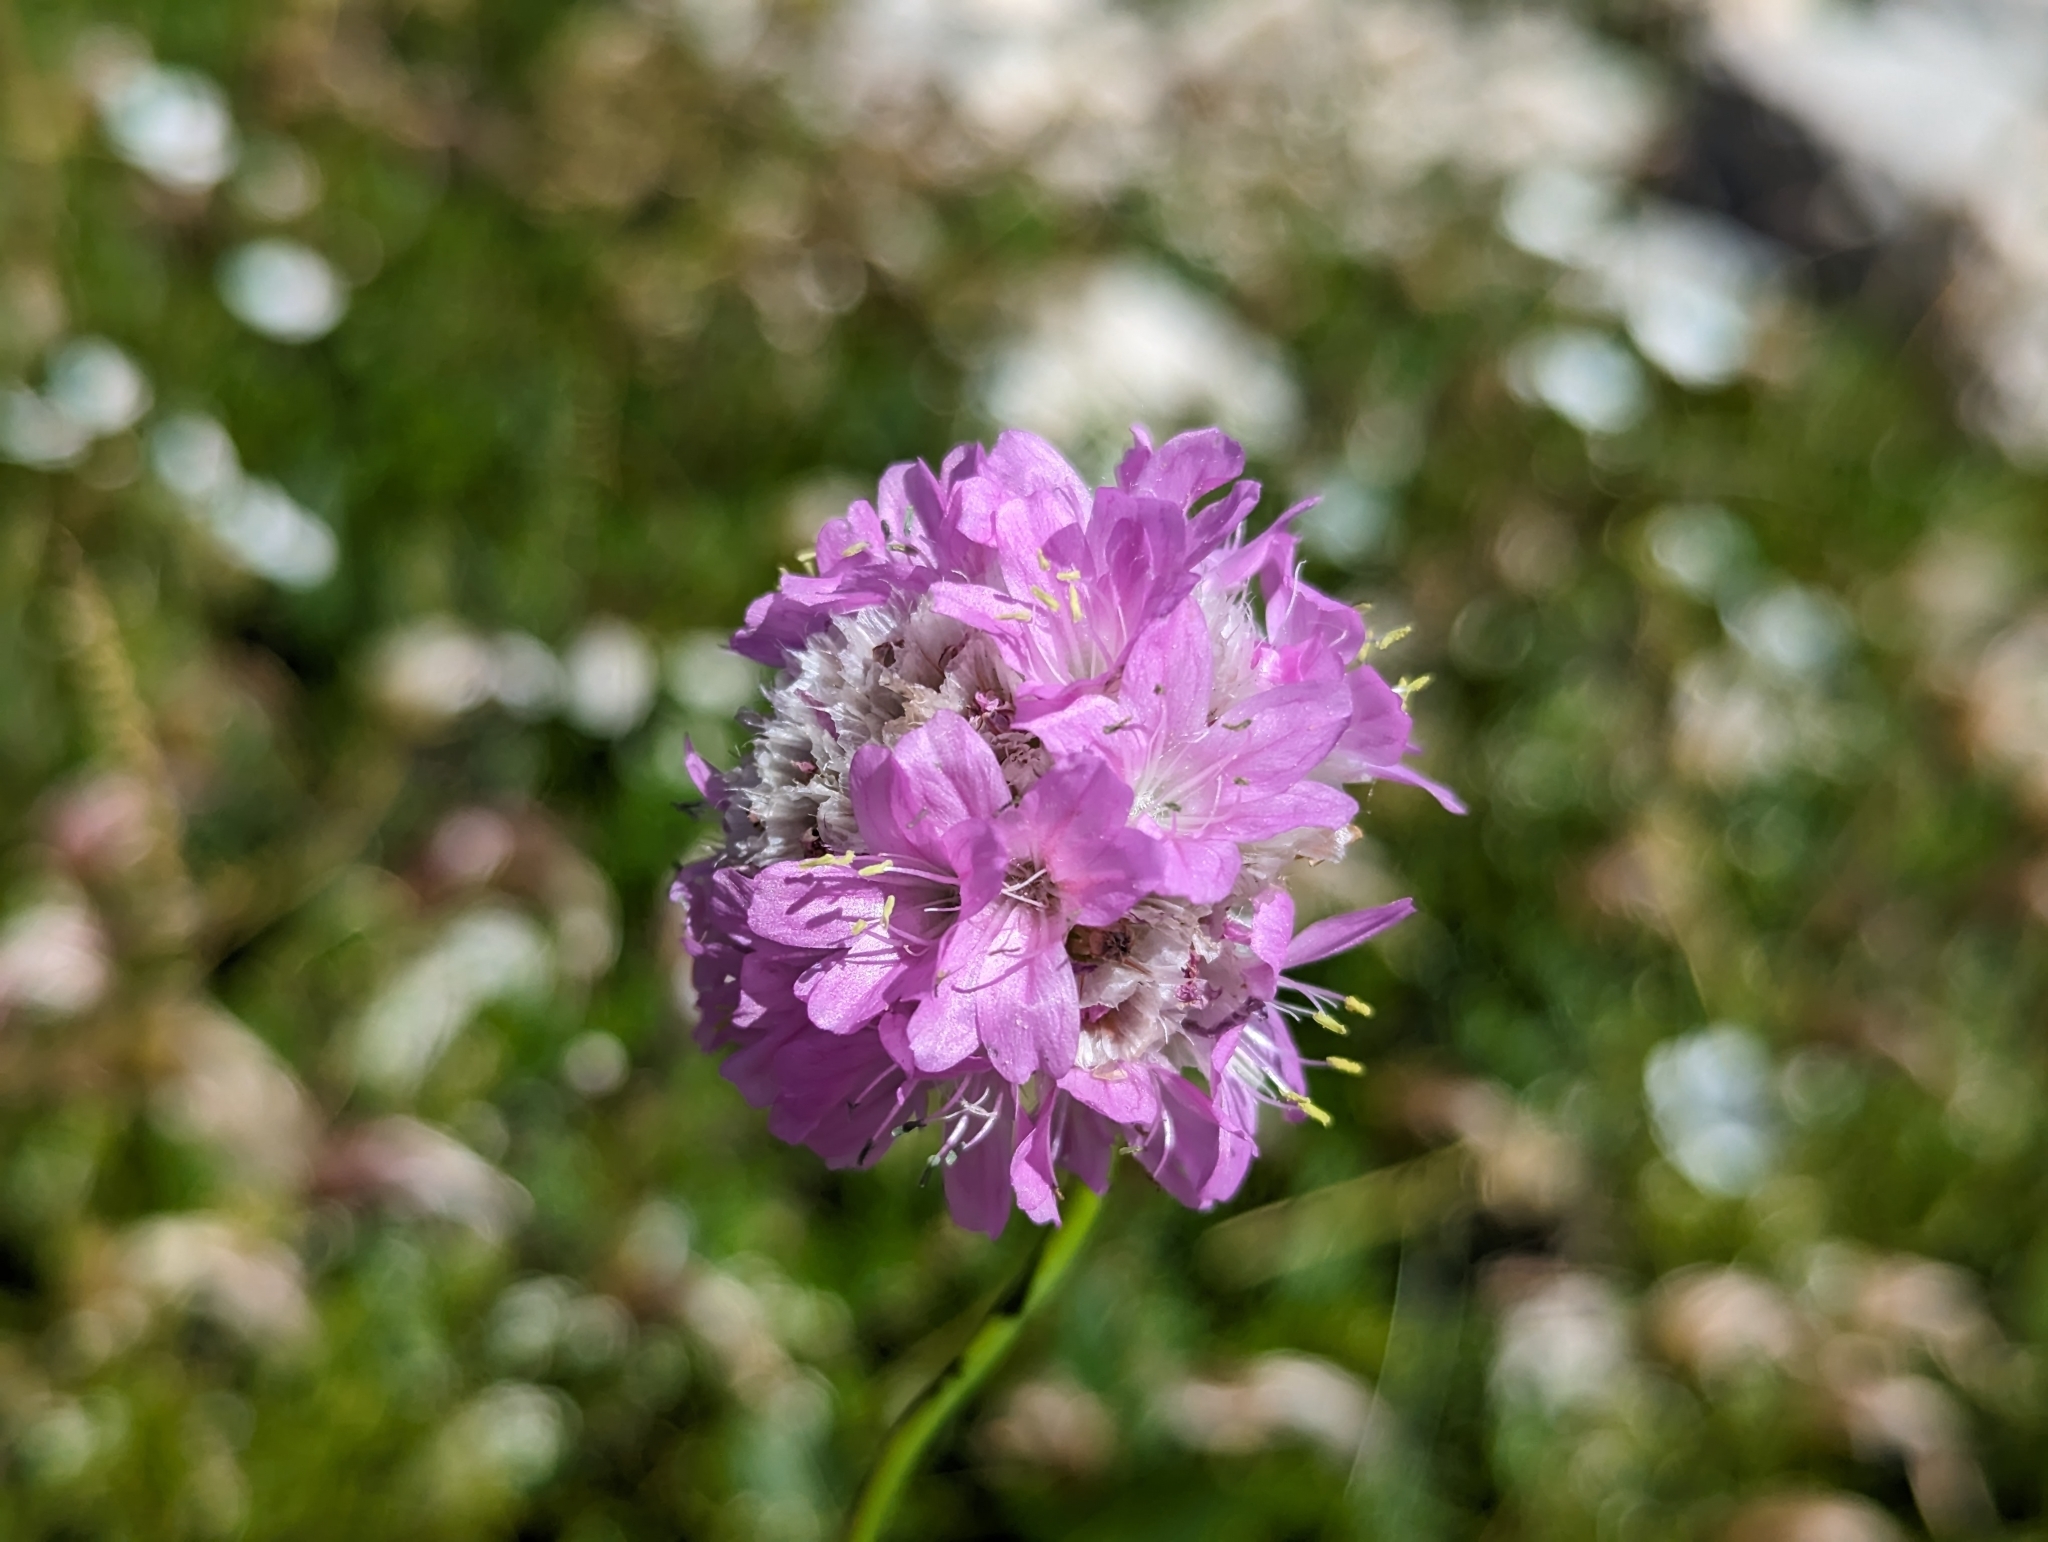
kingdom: Plantae
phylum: Tracheophyta
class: Magnoliopsida
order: Caryophyllales
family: Plumbaginaceae
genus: Armeria
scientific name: Armeria alpina
